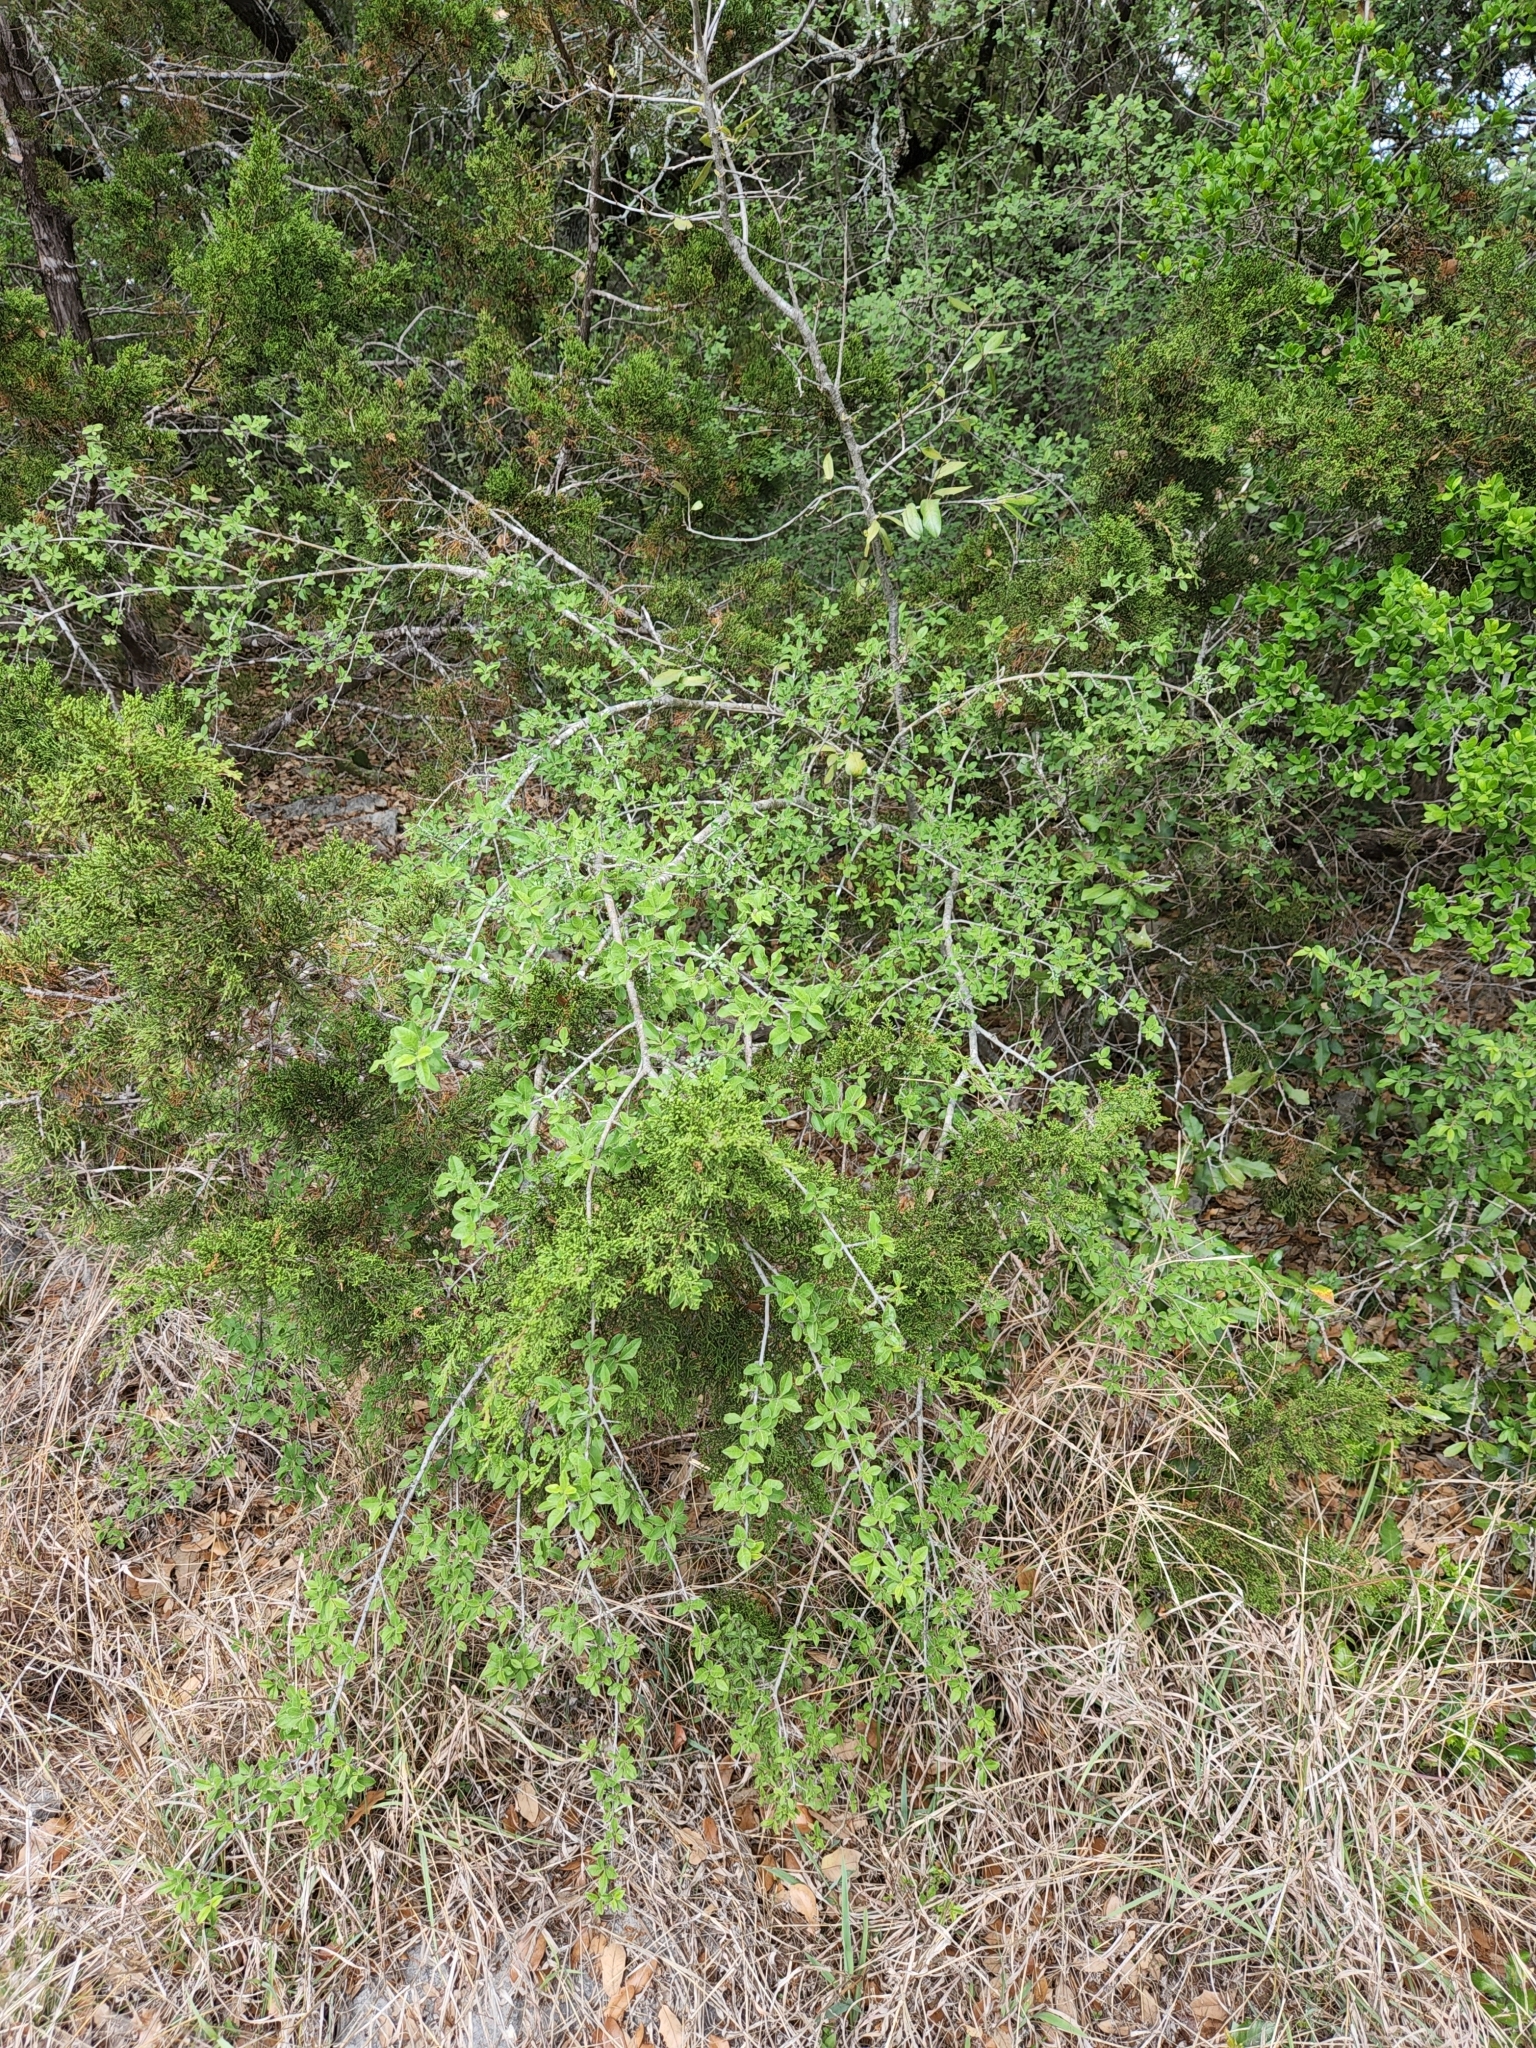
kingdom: Plantae
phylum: Tracheophyta
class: Magnoliopsida
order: Lamiales
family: Oleaceae
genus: Forestiera
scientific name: Forestiera pubescens
